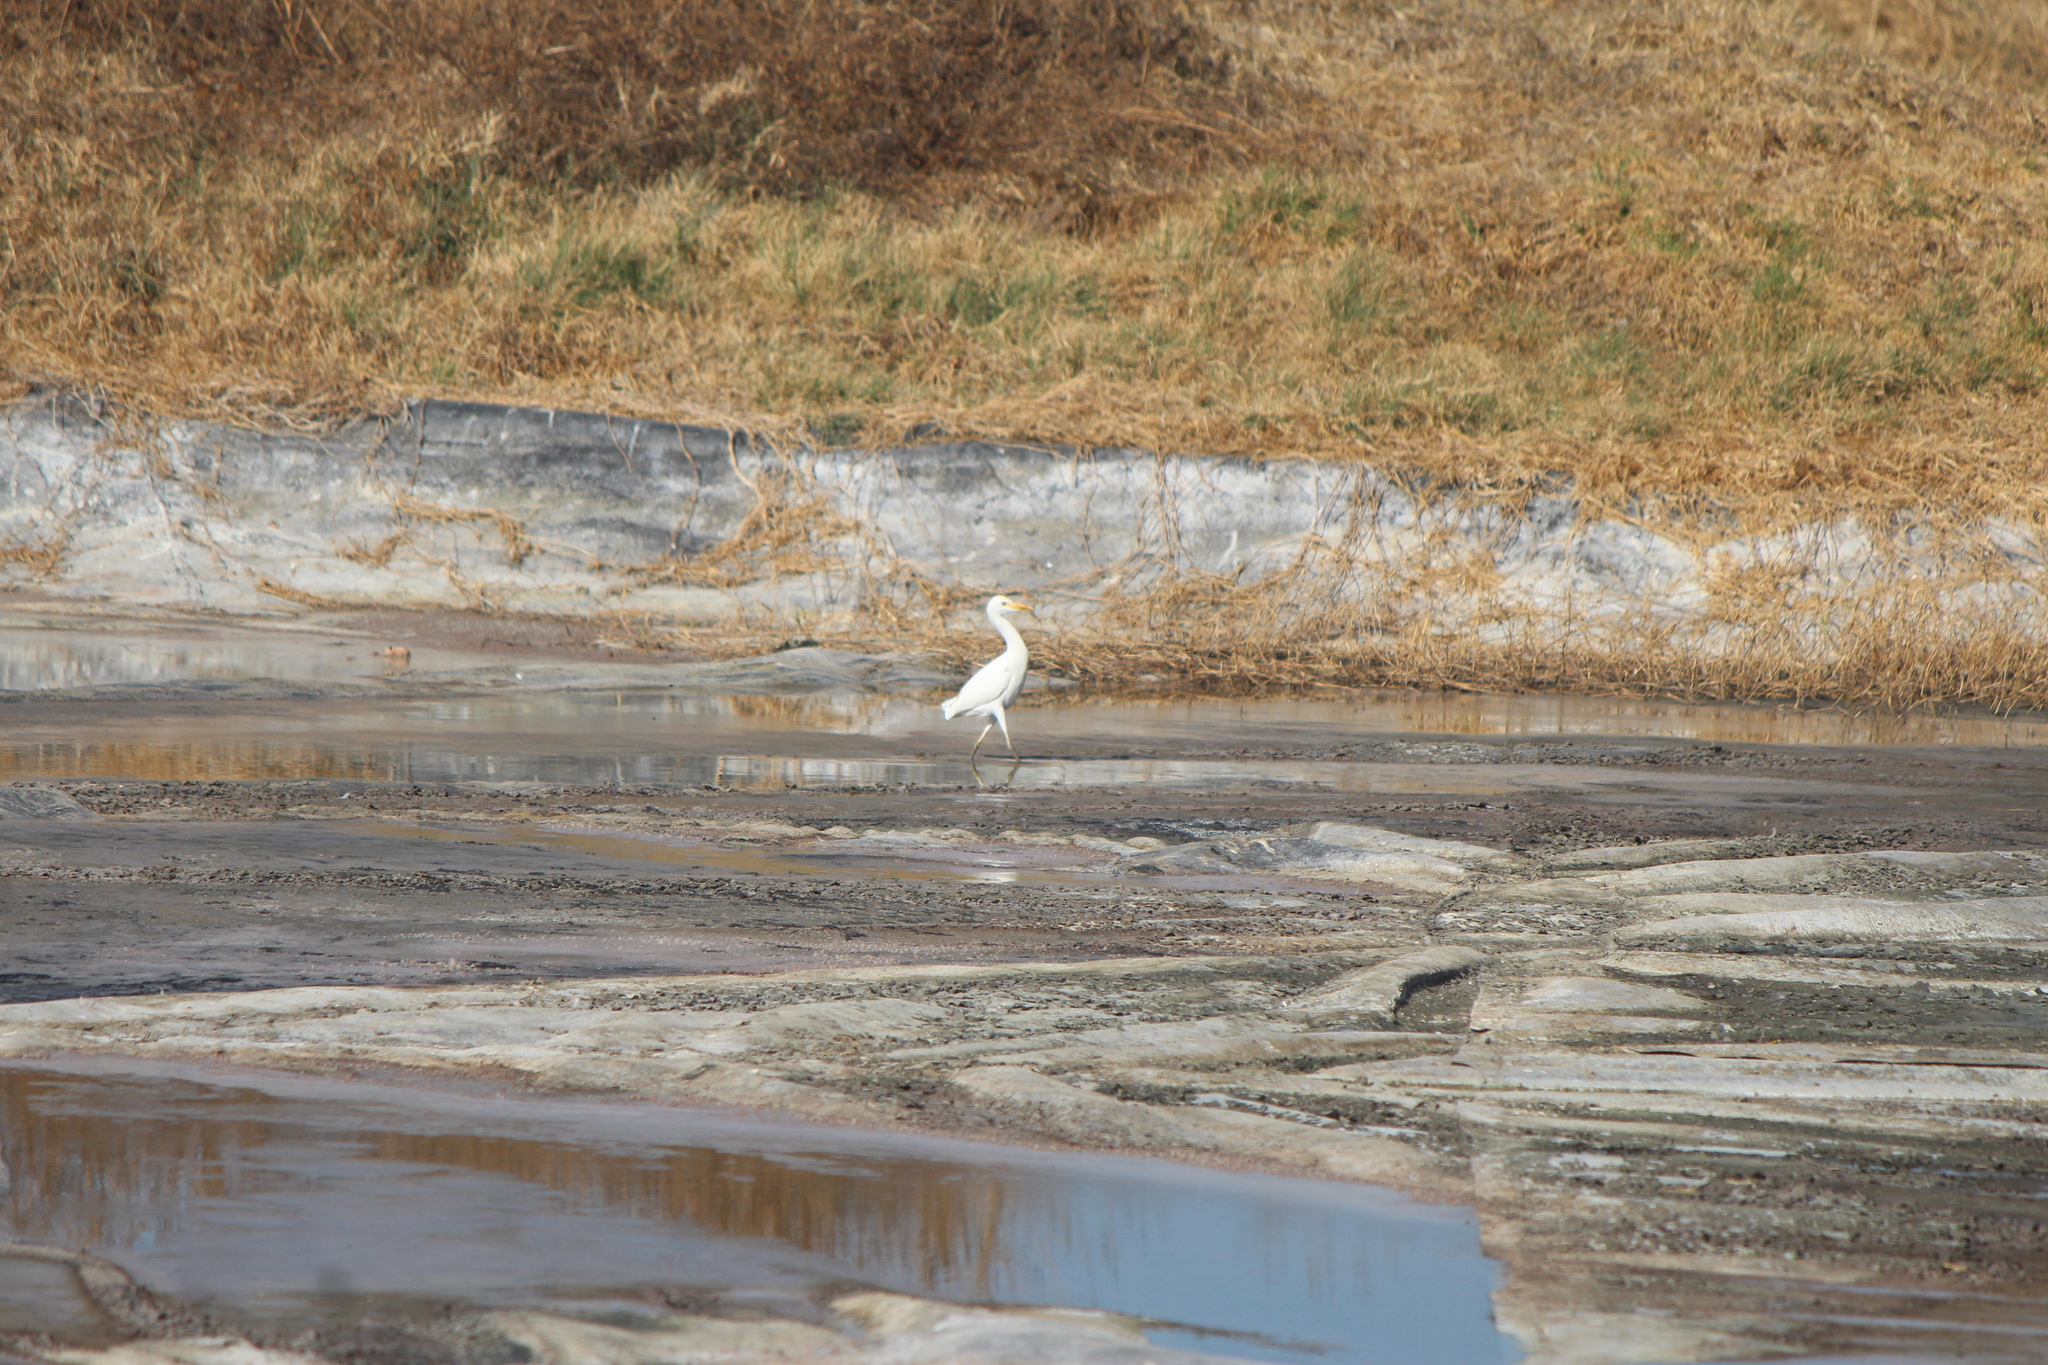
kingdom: Animalia
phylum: Chordata
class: Aves
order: Pelecaniformes
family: Ardeidae
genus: Bubulcus
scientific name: Bubulcus ibis
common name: Cattle egret
